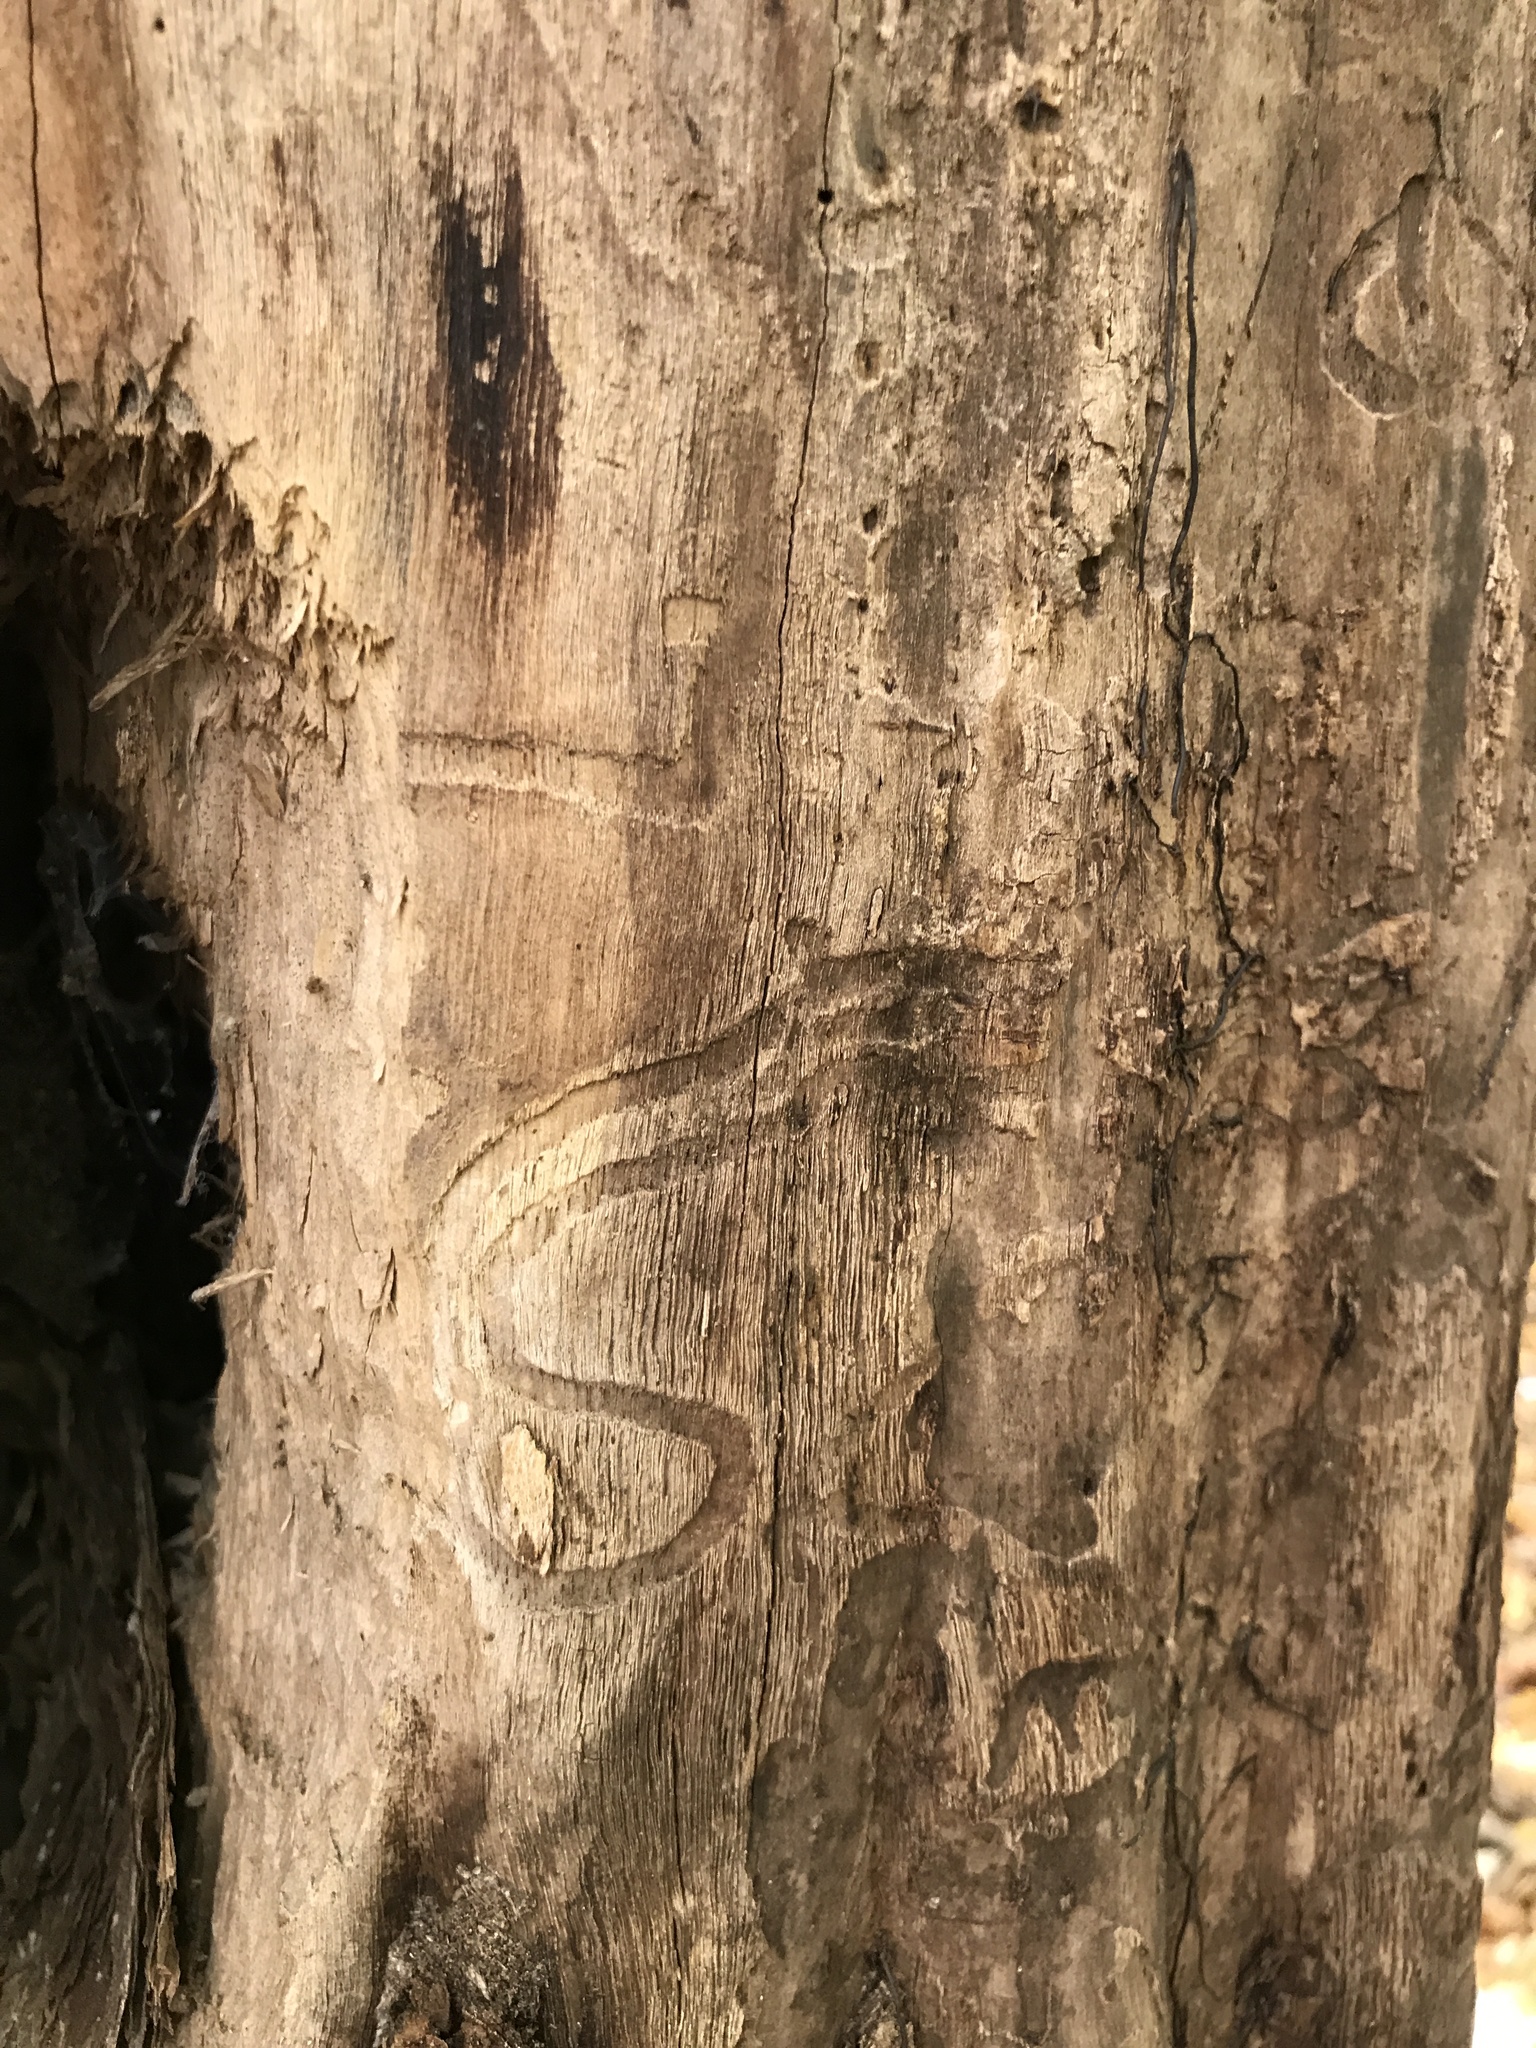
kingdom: Animalia
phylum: Arthropoda
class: Insecta
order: Coleoptera
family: Buprestidae
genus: Agrilus
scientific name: Agrilus planipennis
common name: Emerald ash borer
